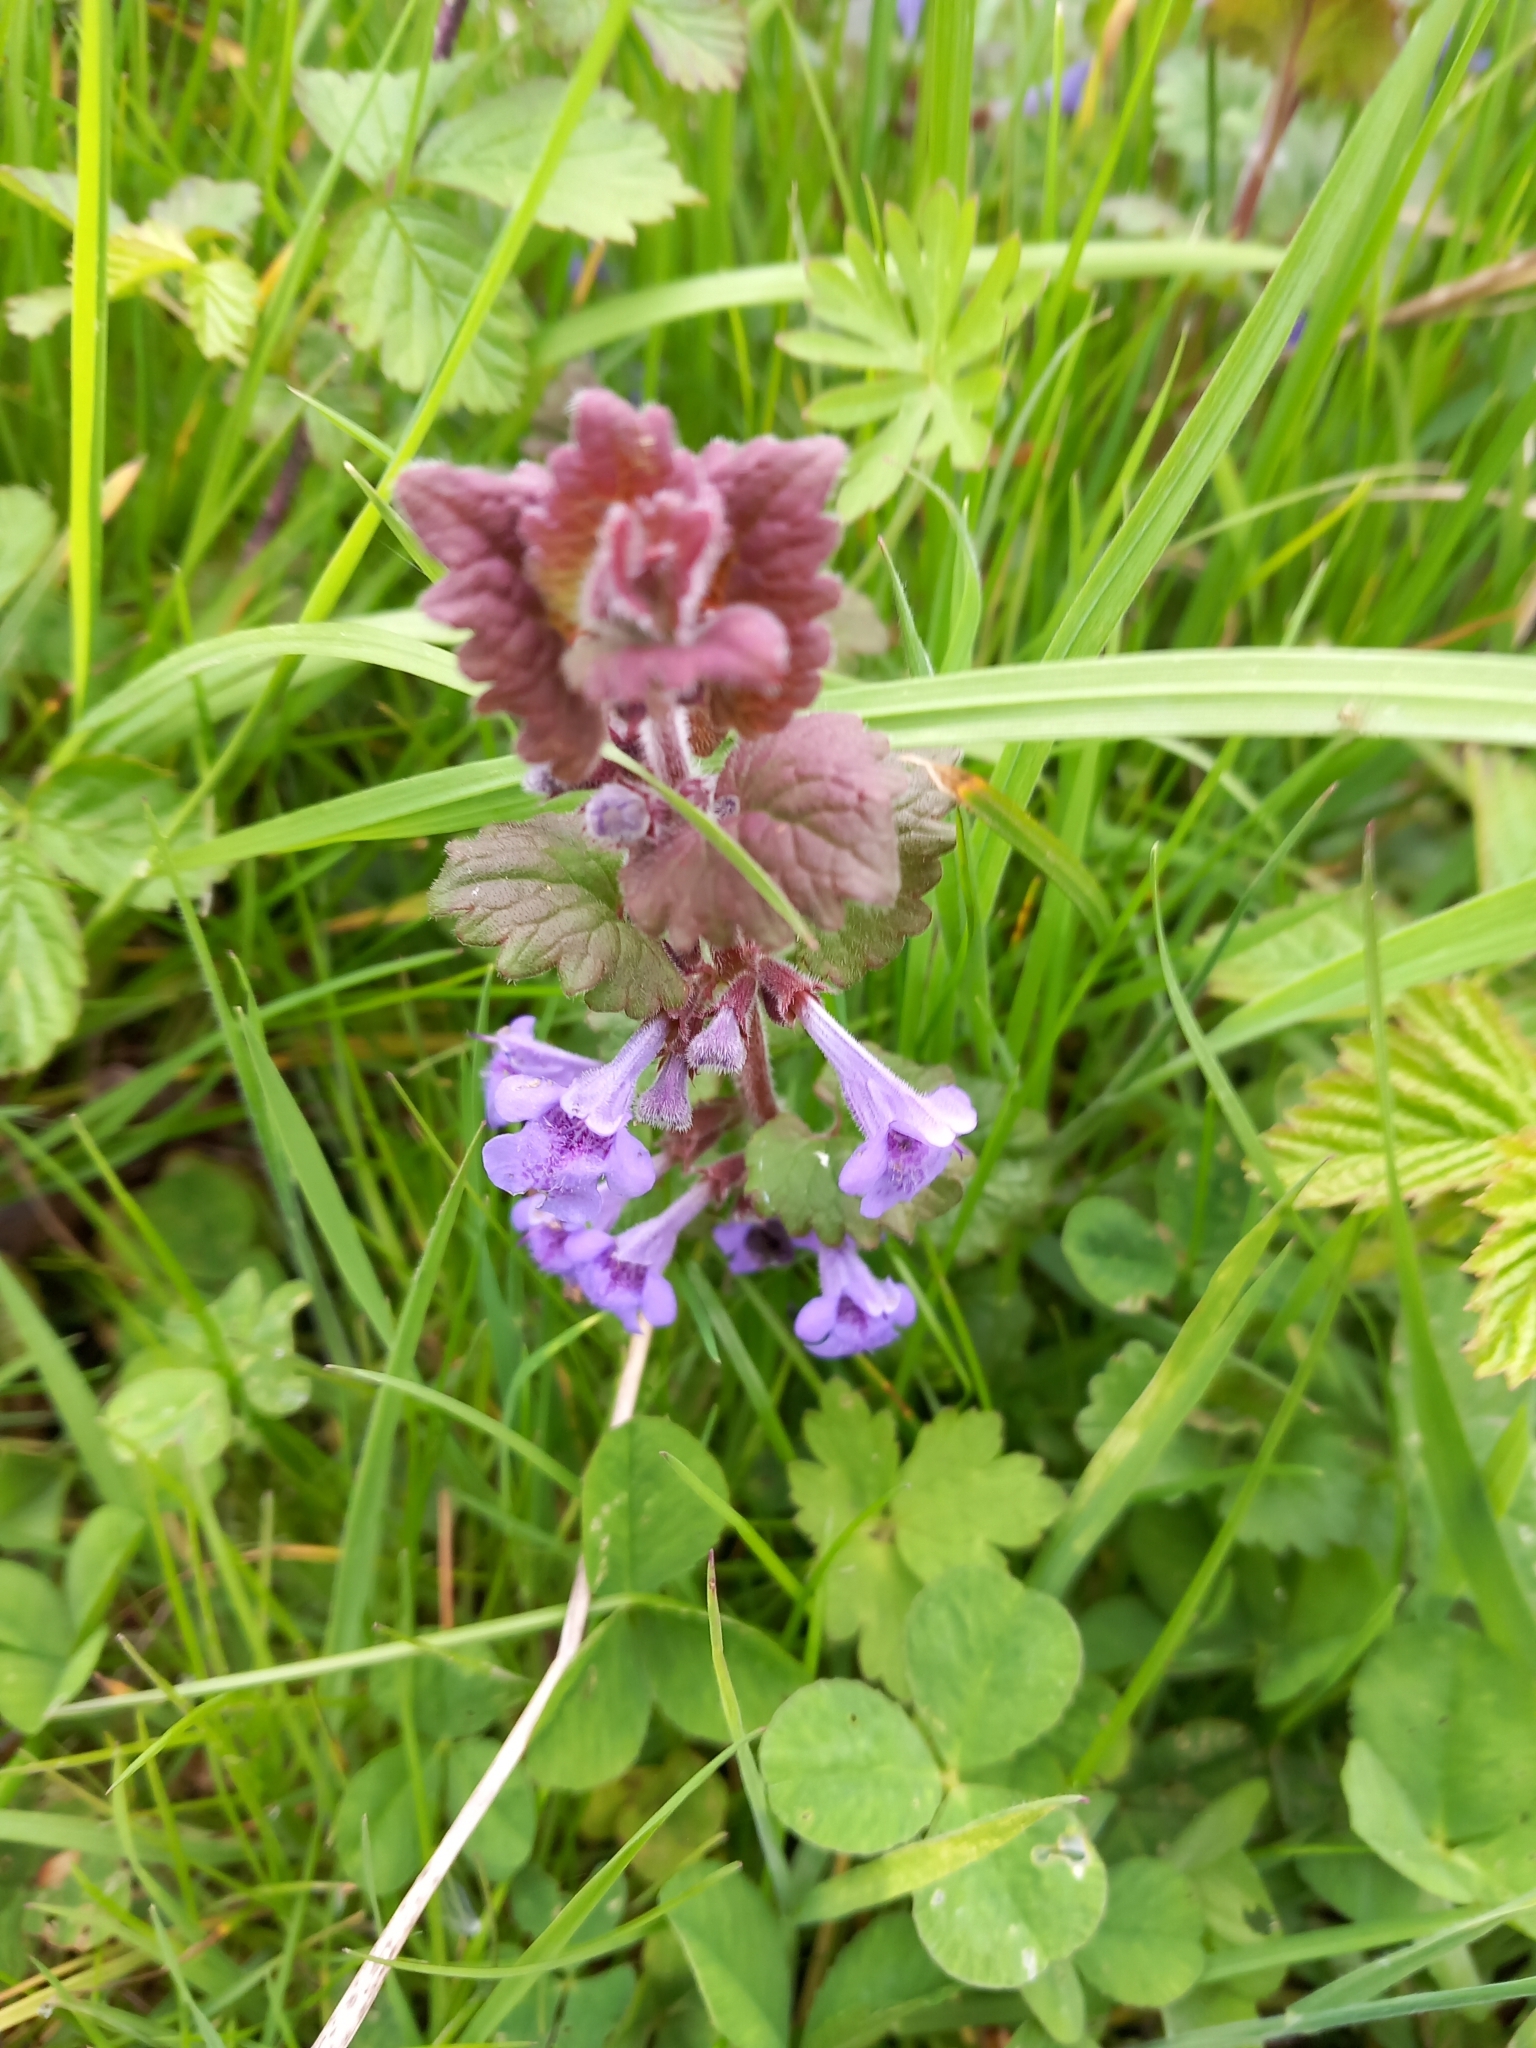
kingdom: Plantae
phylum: Tracheophyta
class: Magnoliopsida
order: Lamiales
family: Lamiaceae
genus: Glechoma
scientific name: Glechoma hederacea
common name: Ground ivy
